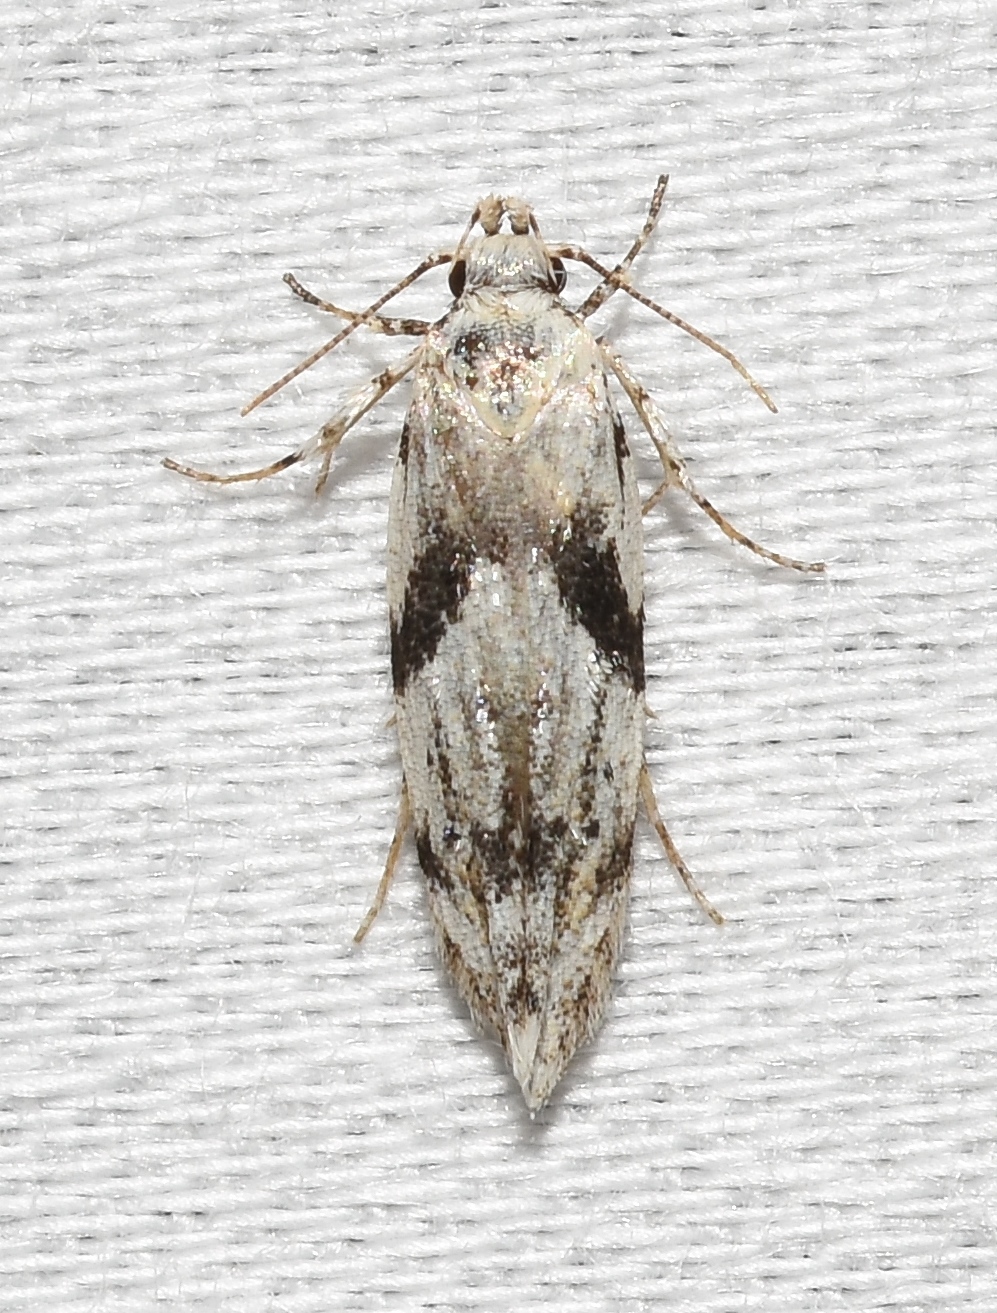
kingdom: Animalia
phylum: Arthropoda
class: Insecta
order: Lepidoptera
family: Gelechiidae
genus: Arogalea
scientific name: Arogalea cristifasciella
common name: White stripe-backed moth
